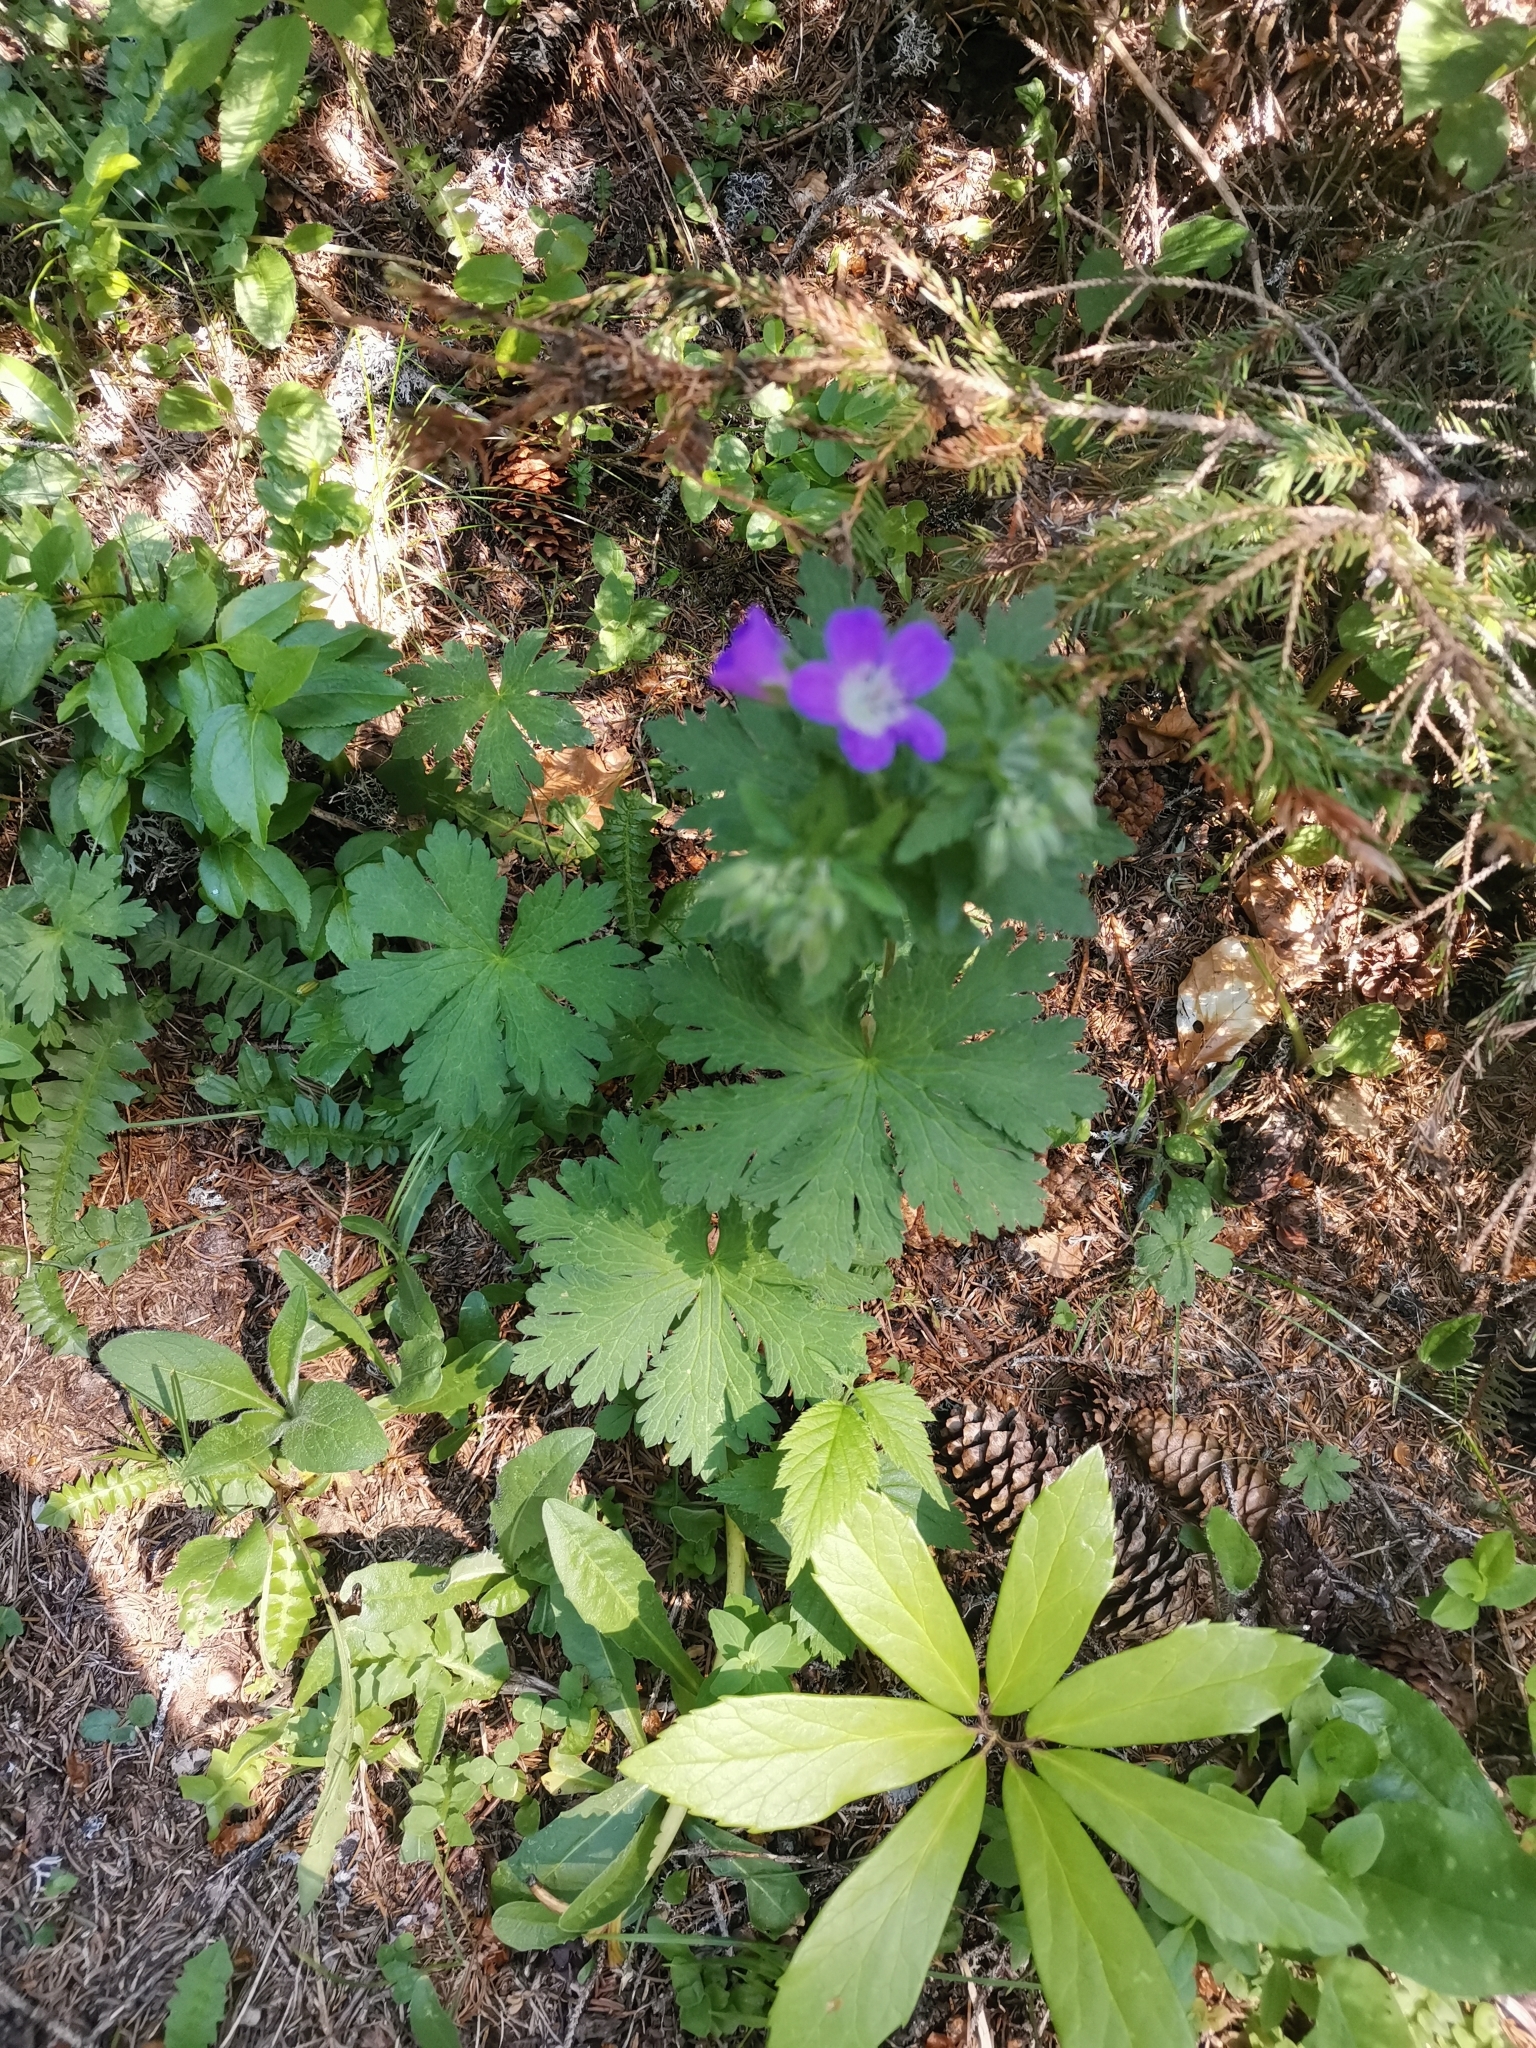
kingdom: Plantae
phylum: Tracheophyta
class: Magnoliopsida
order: Geraniales
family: Geraniaceae
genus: Geranium
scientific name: Geranium sylvaticum
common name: Wood crane's-bill
